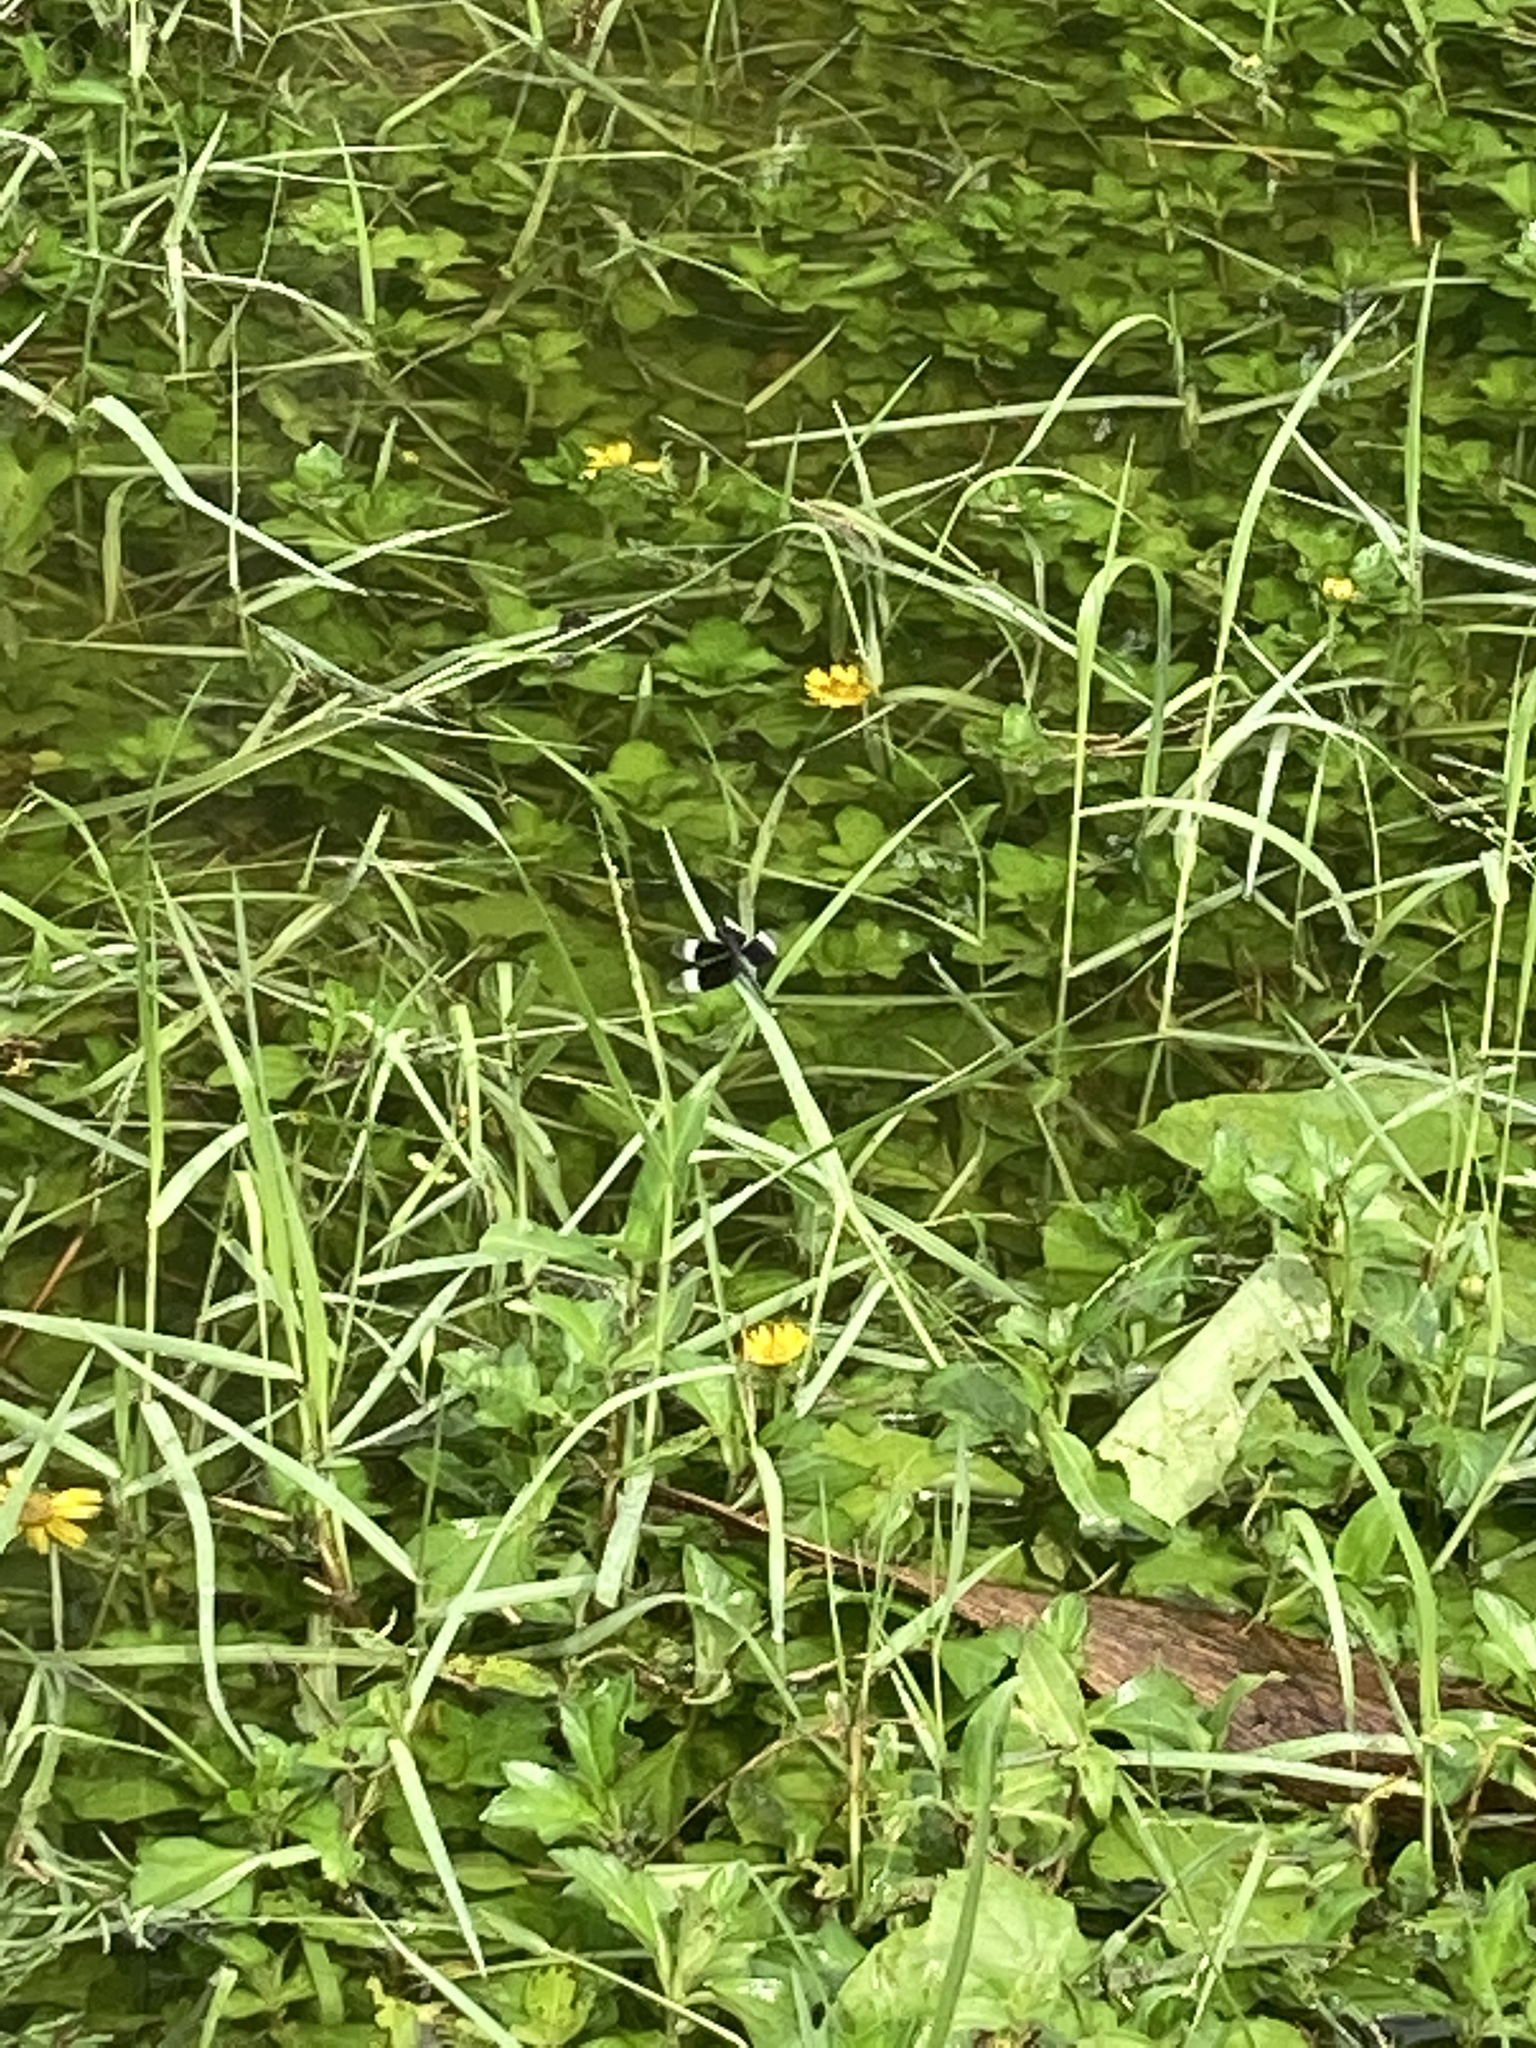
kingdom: Animalia
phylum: Arthropoda
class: Insecta
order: Odonata
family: Libellulidae
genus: Neurothemis
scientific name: Neurothemis tullia
